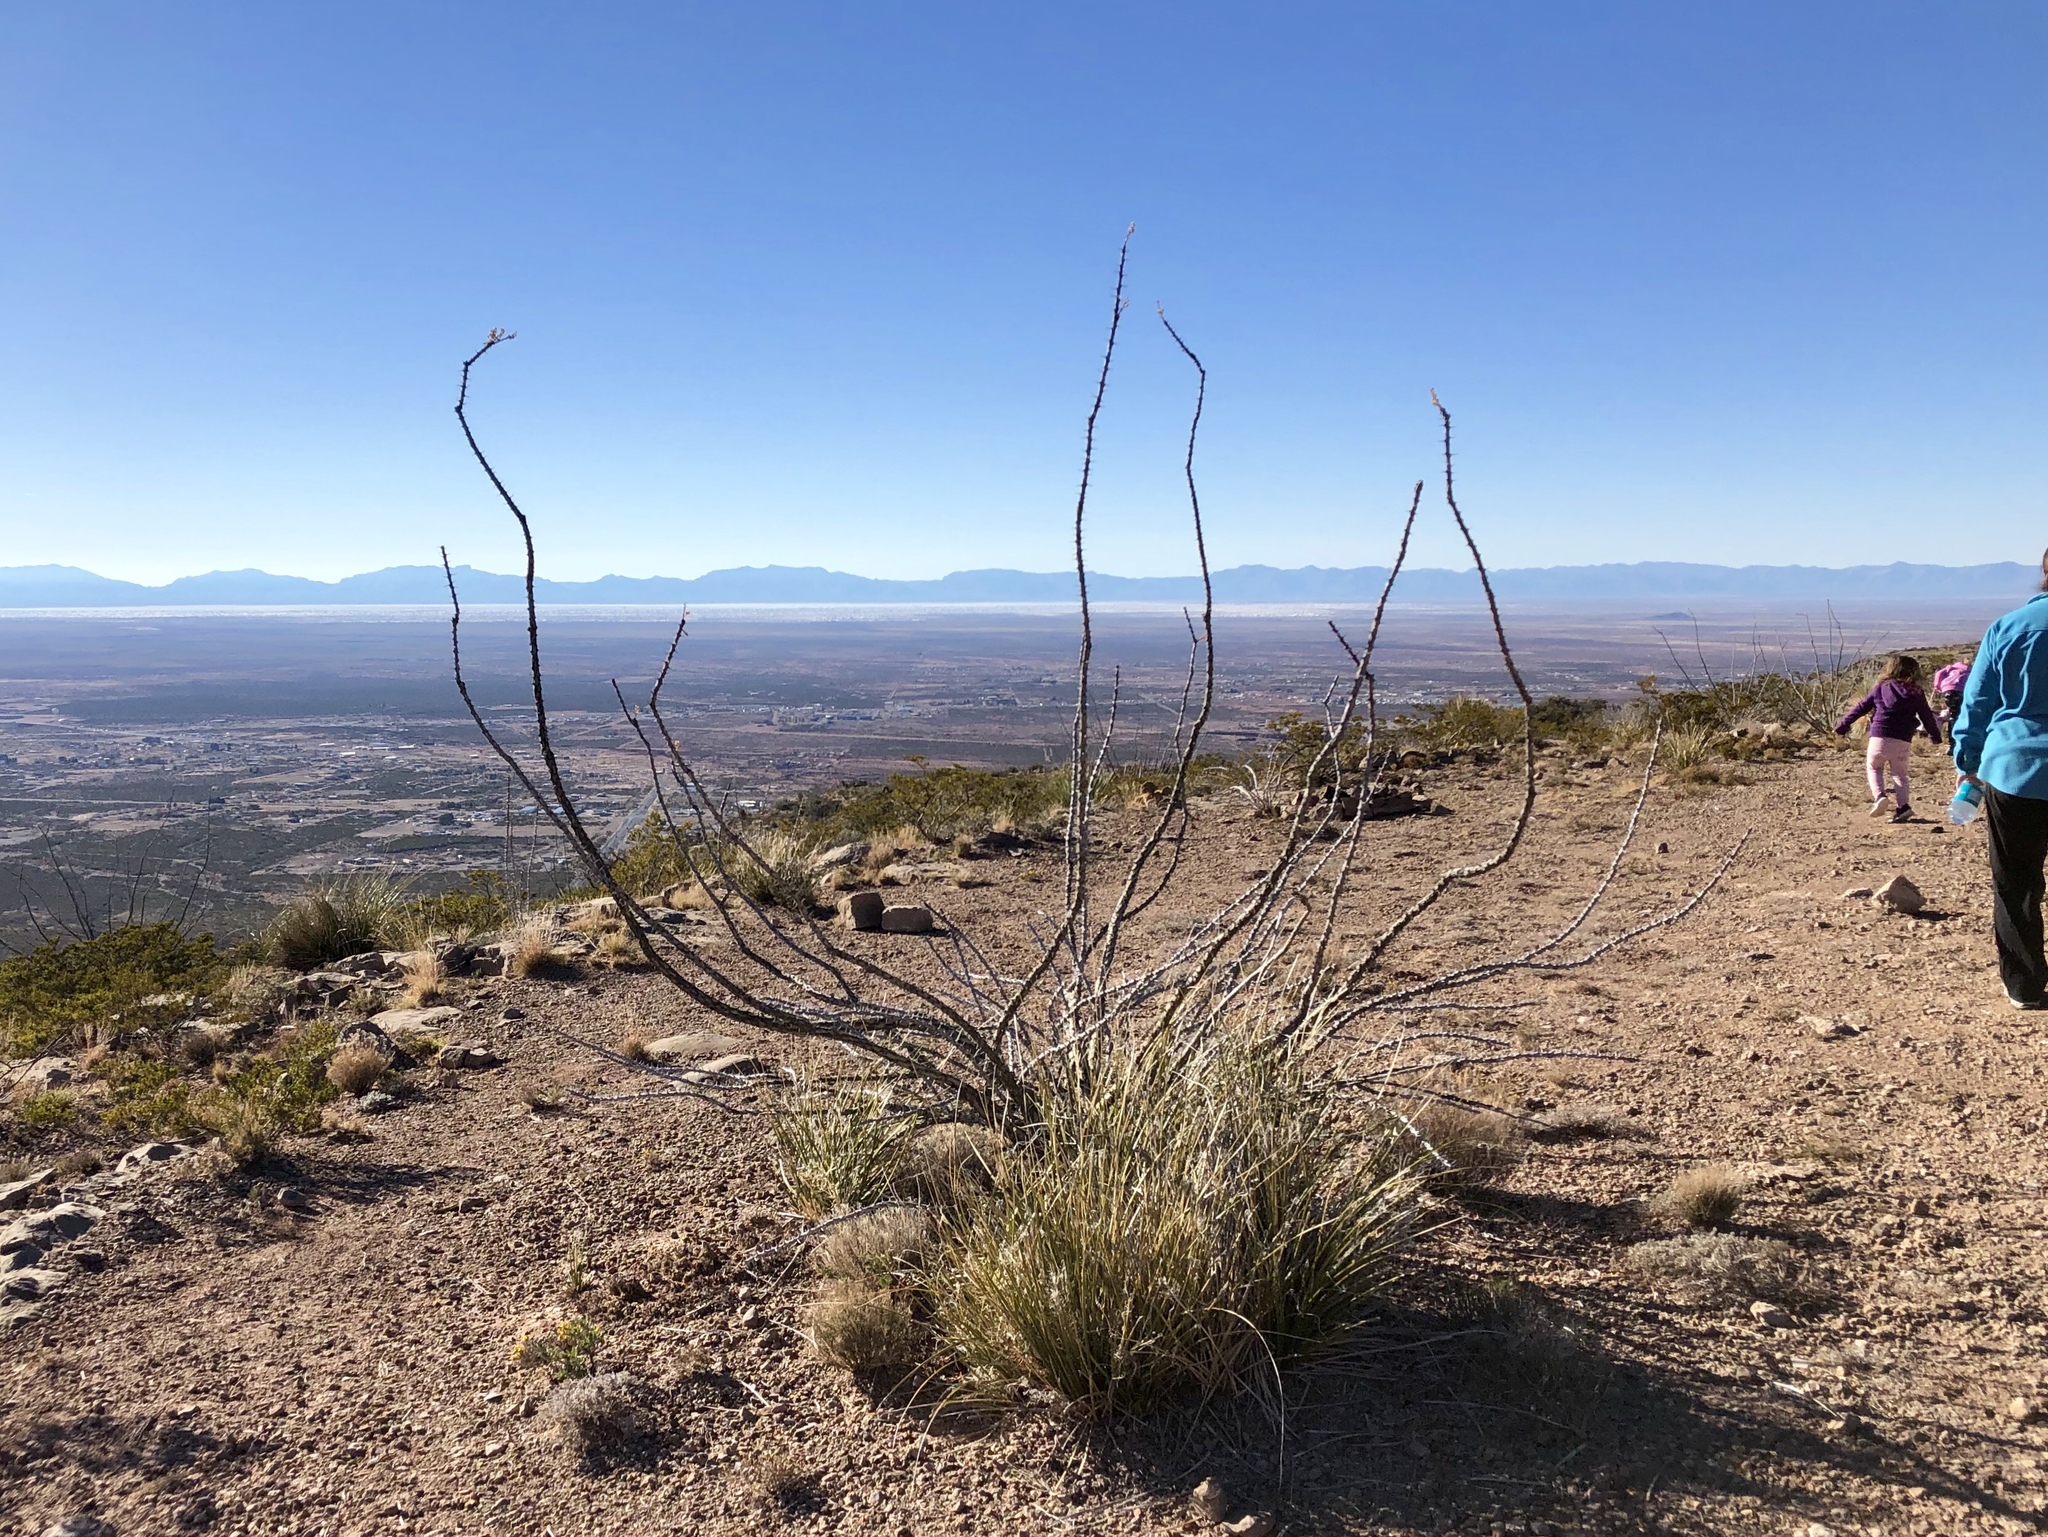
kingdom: Plantae
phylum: Tracheophyta
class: Magnoliopsida
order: Ericales
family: Fouquieriaceae
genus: Fouquieria
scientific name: Fouquieria splendens
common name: Vine-cactus
